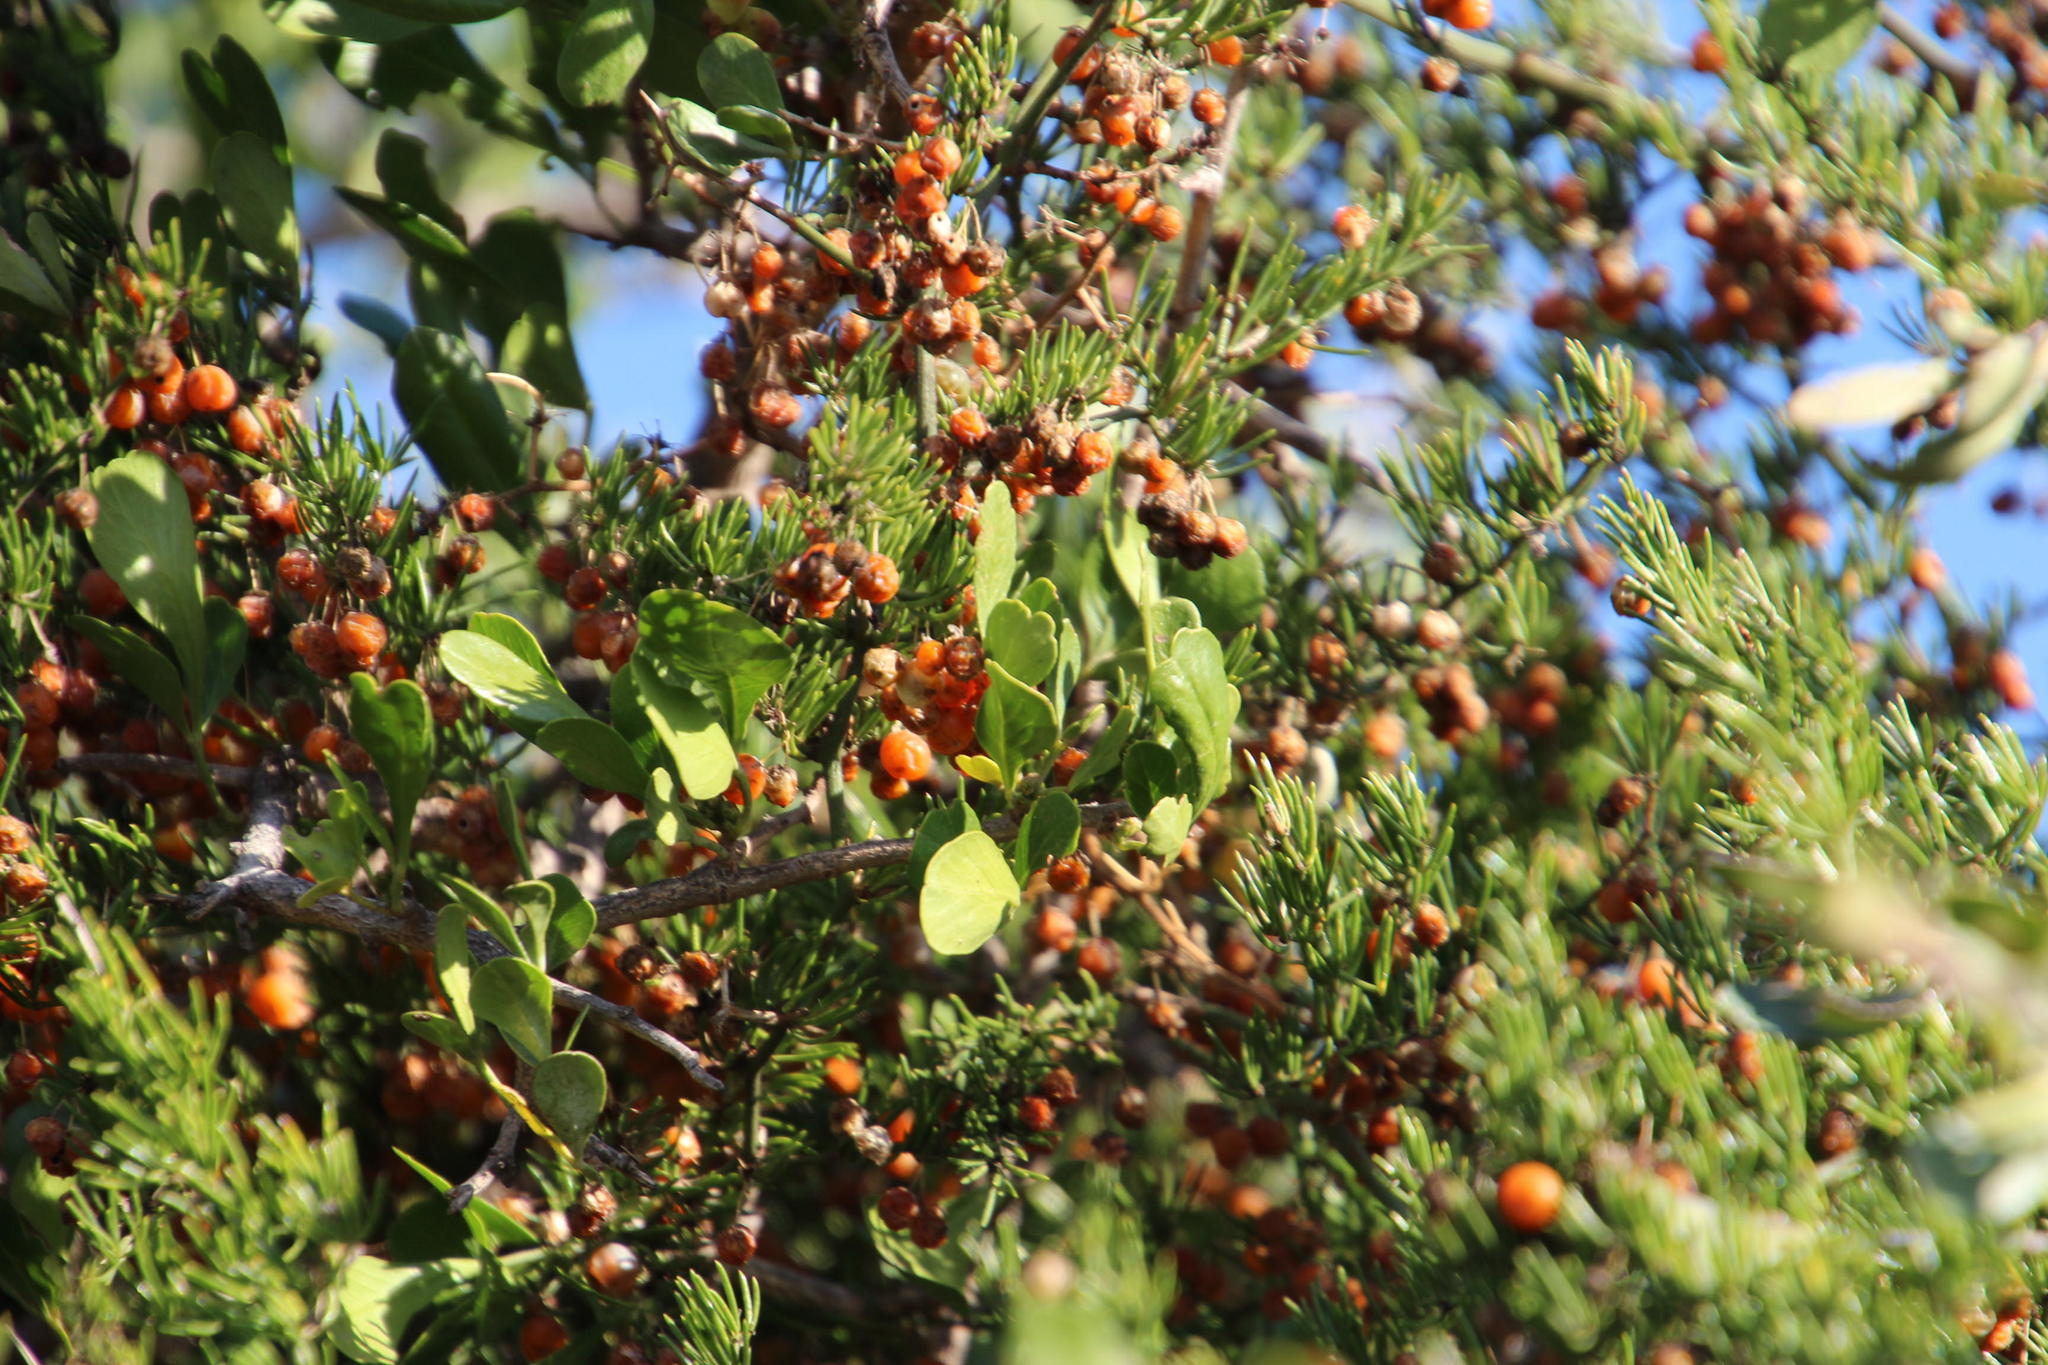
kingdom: Plantae
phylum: Tracheophyta
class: Liliopsida
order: Asparagales
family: Asparagaceae
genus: Asparagus
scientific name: Asparagus africanus
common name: Asparagus-fern
